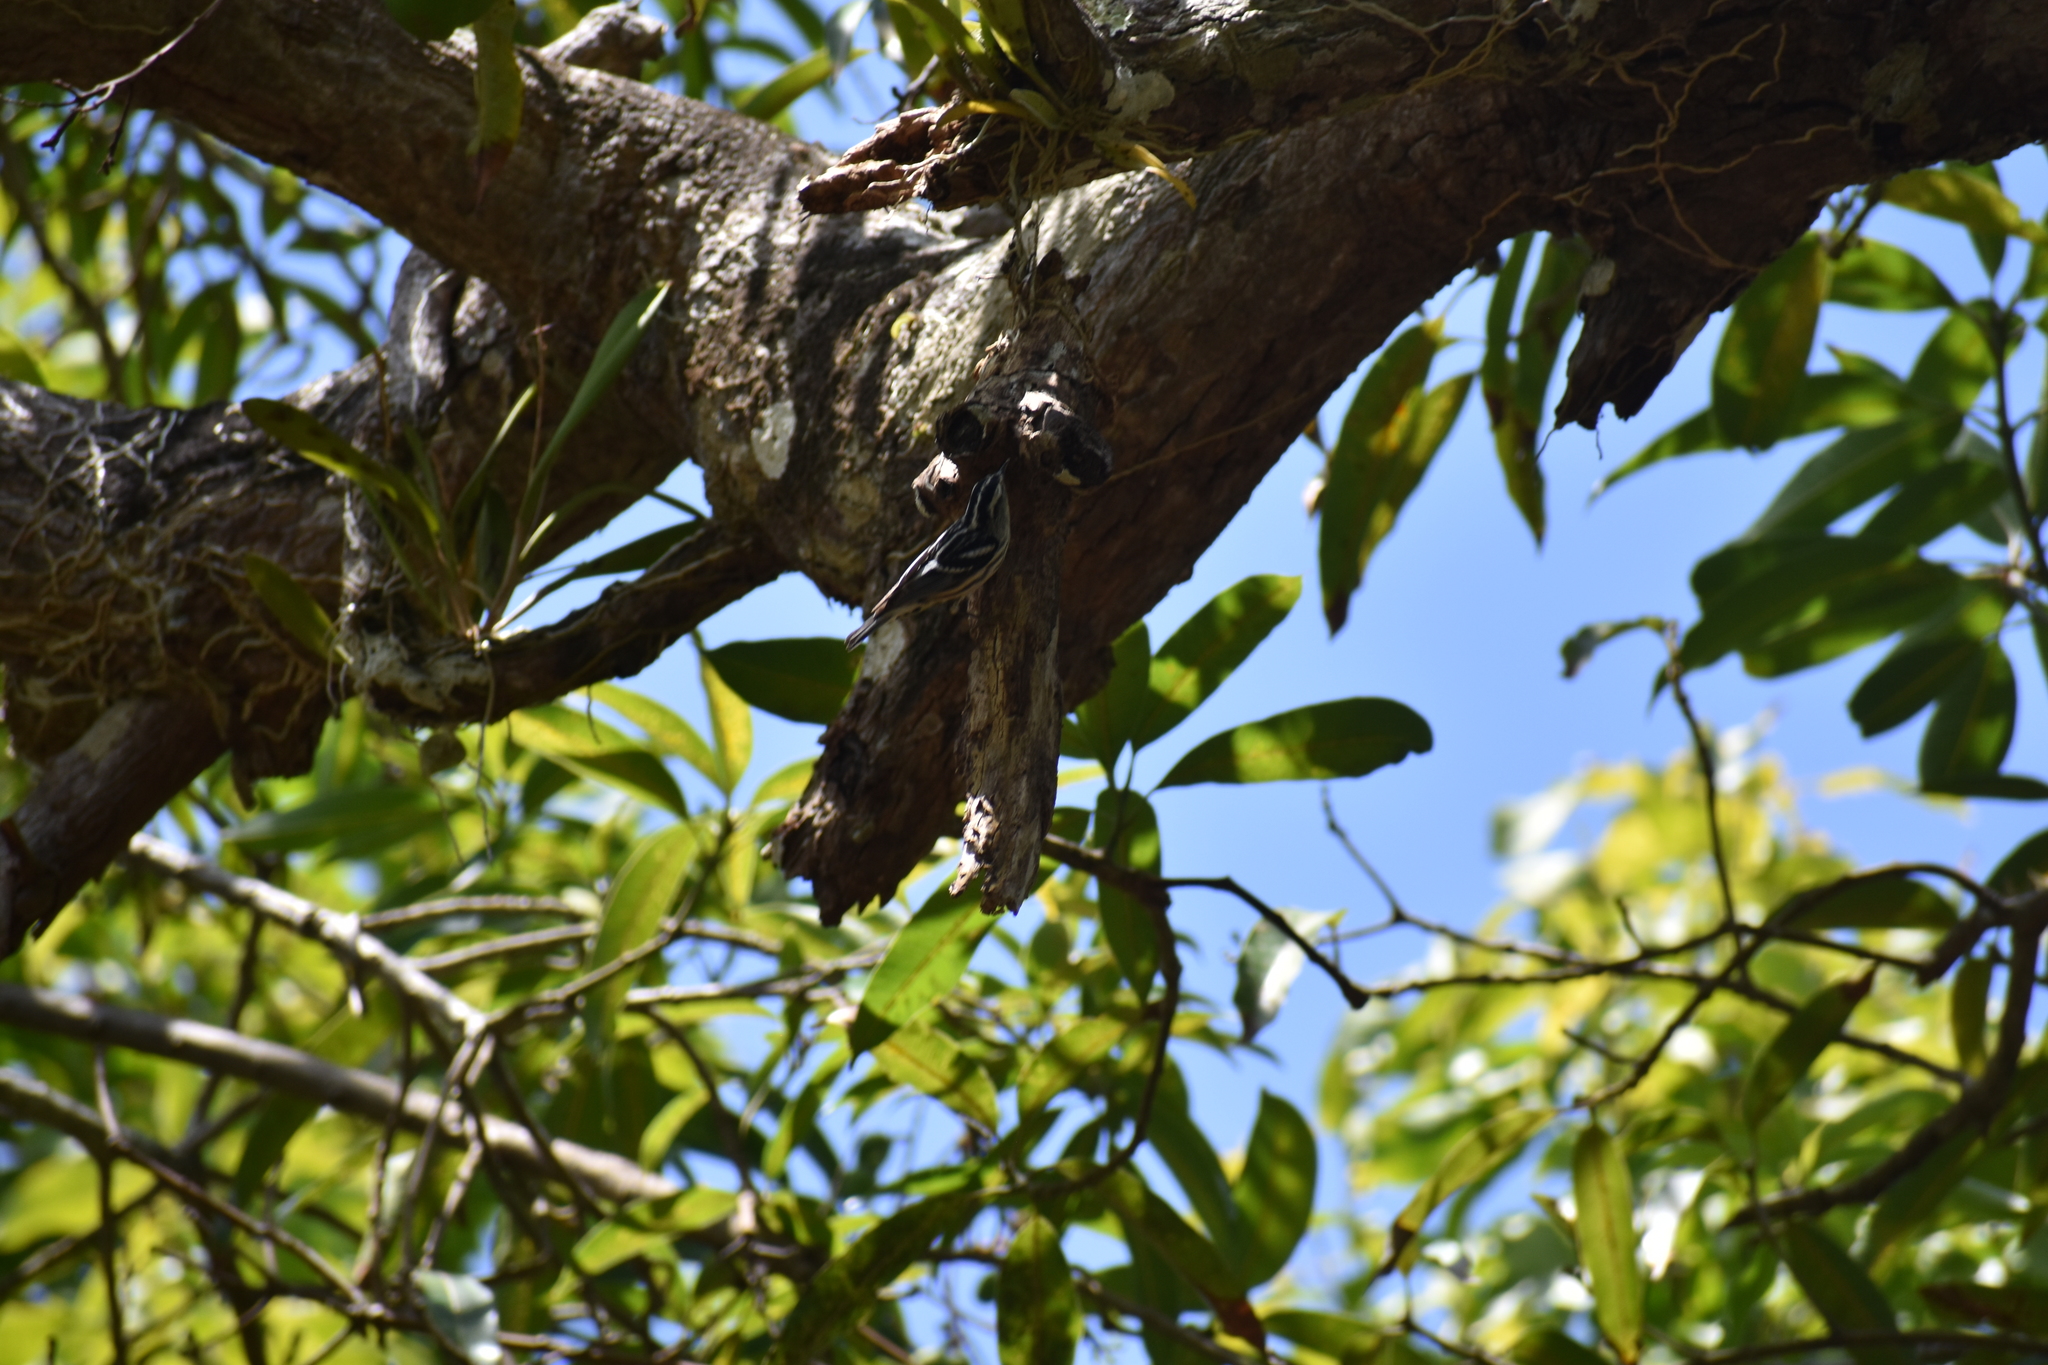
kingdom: Animalia
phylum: Chordata
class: Aves
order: Passeriformes
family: Parulidae
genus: Mniotilta
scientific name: Mniotilta varia
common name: Black-and-white warbler
